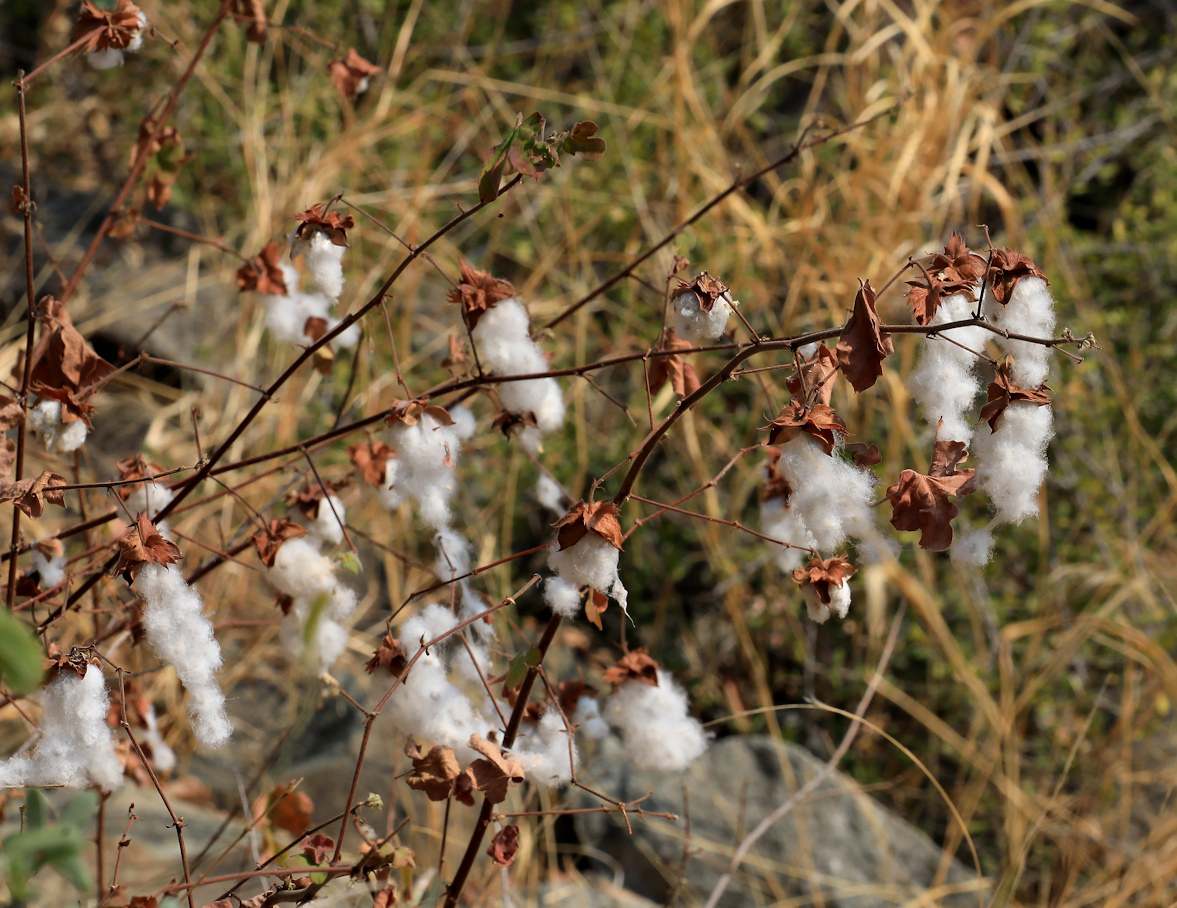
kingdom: Plantae
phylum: Tracheophyta
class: Magnoliopsida
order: Malvales
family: Malvaceae
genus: Gossypium
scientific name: Gossypium herbaceum
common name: Levant cotton
